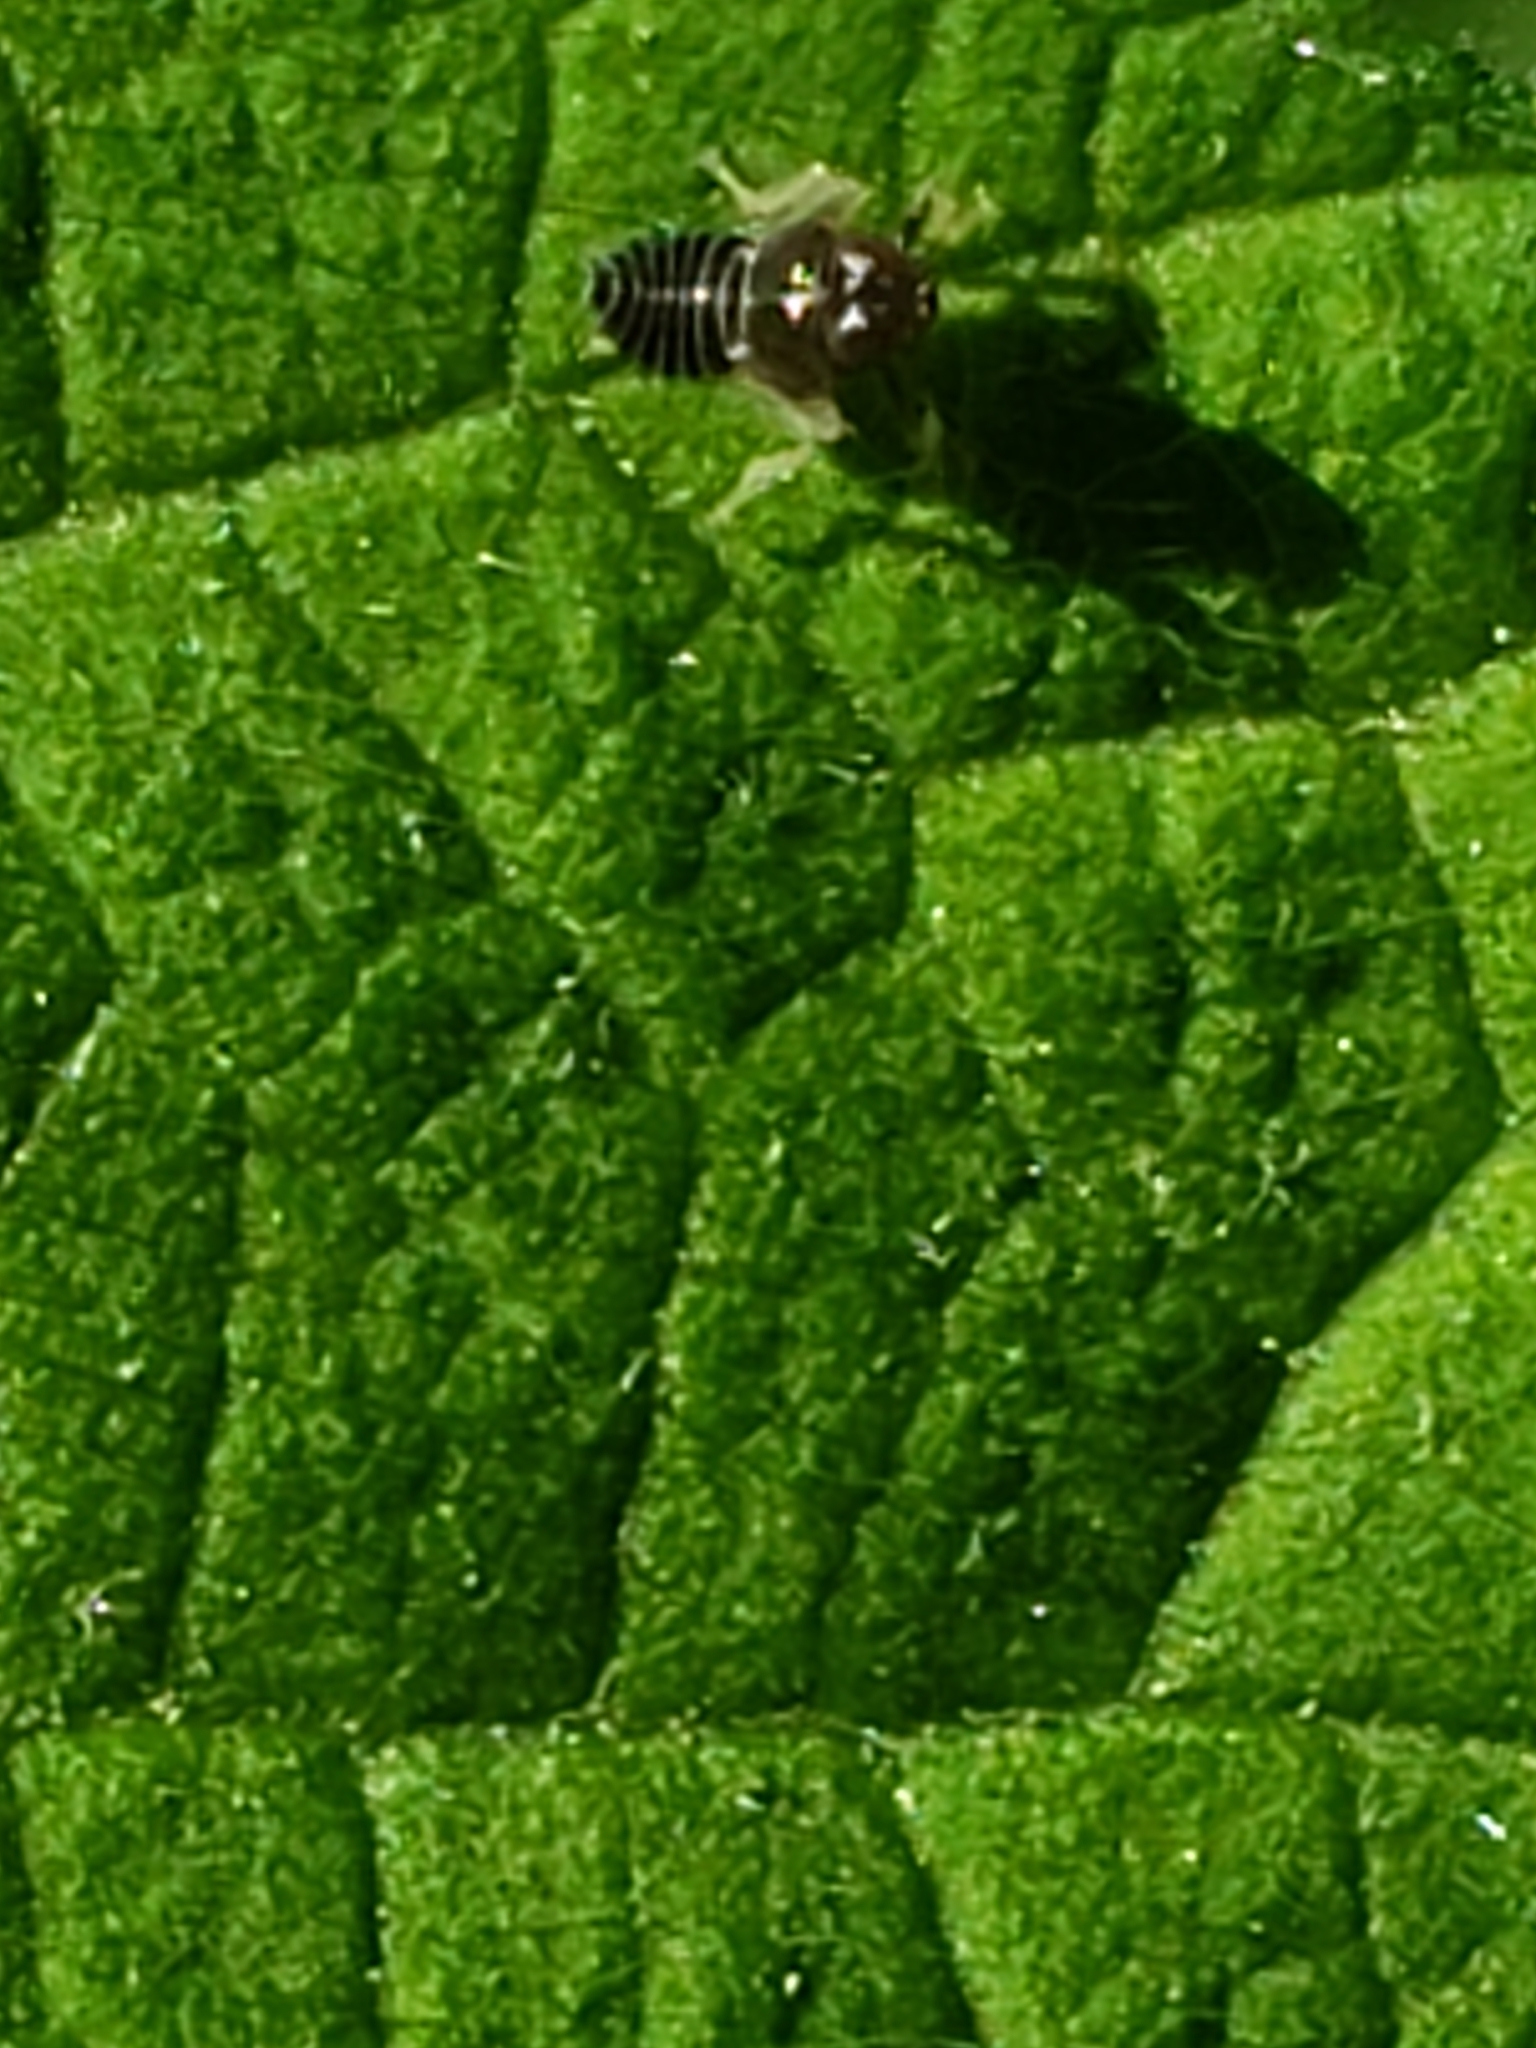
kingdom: Animalia
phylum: Arthropoda
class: Insecta
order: Hemiptera
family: Cicadellidae
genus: Jikradia
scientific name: Jikradia olitoria
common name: Coppery leafhopper
